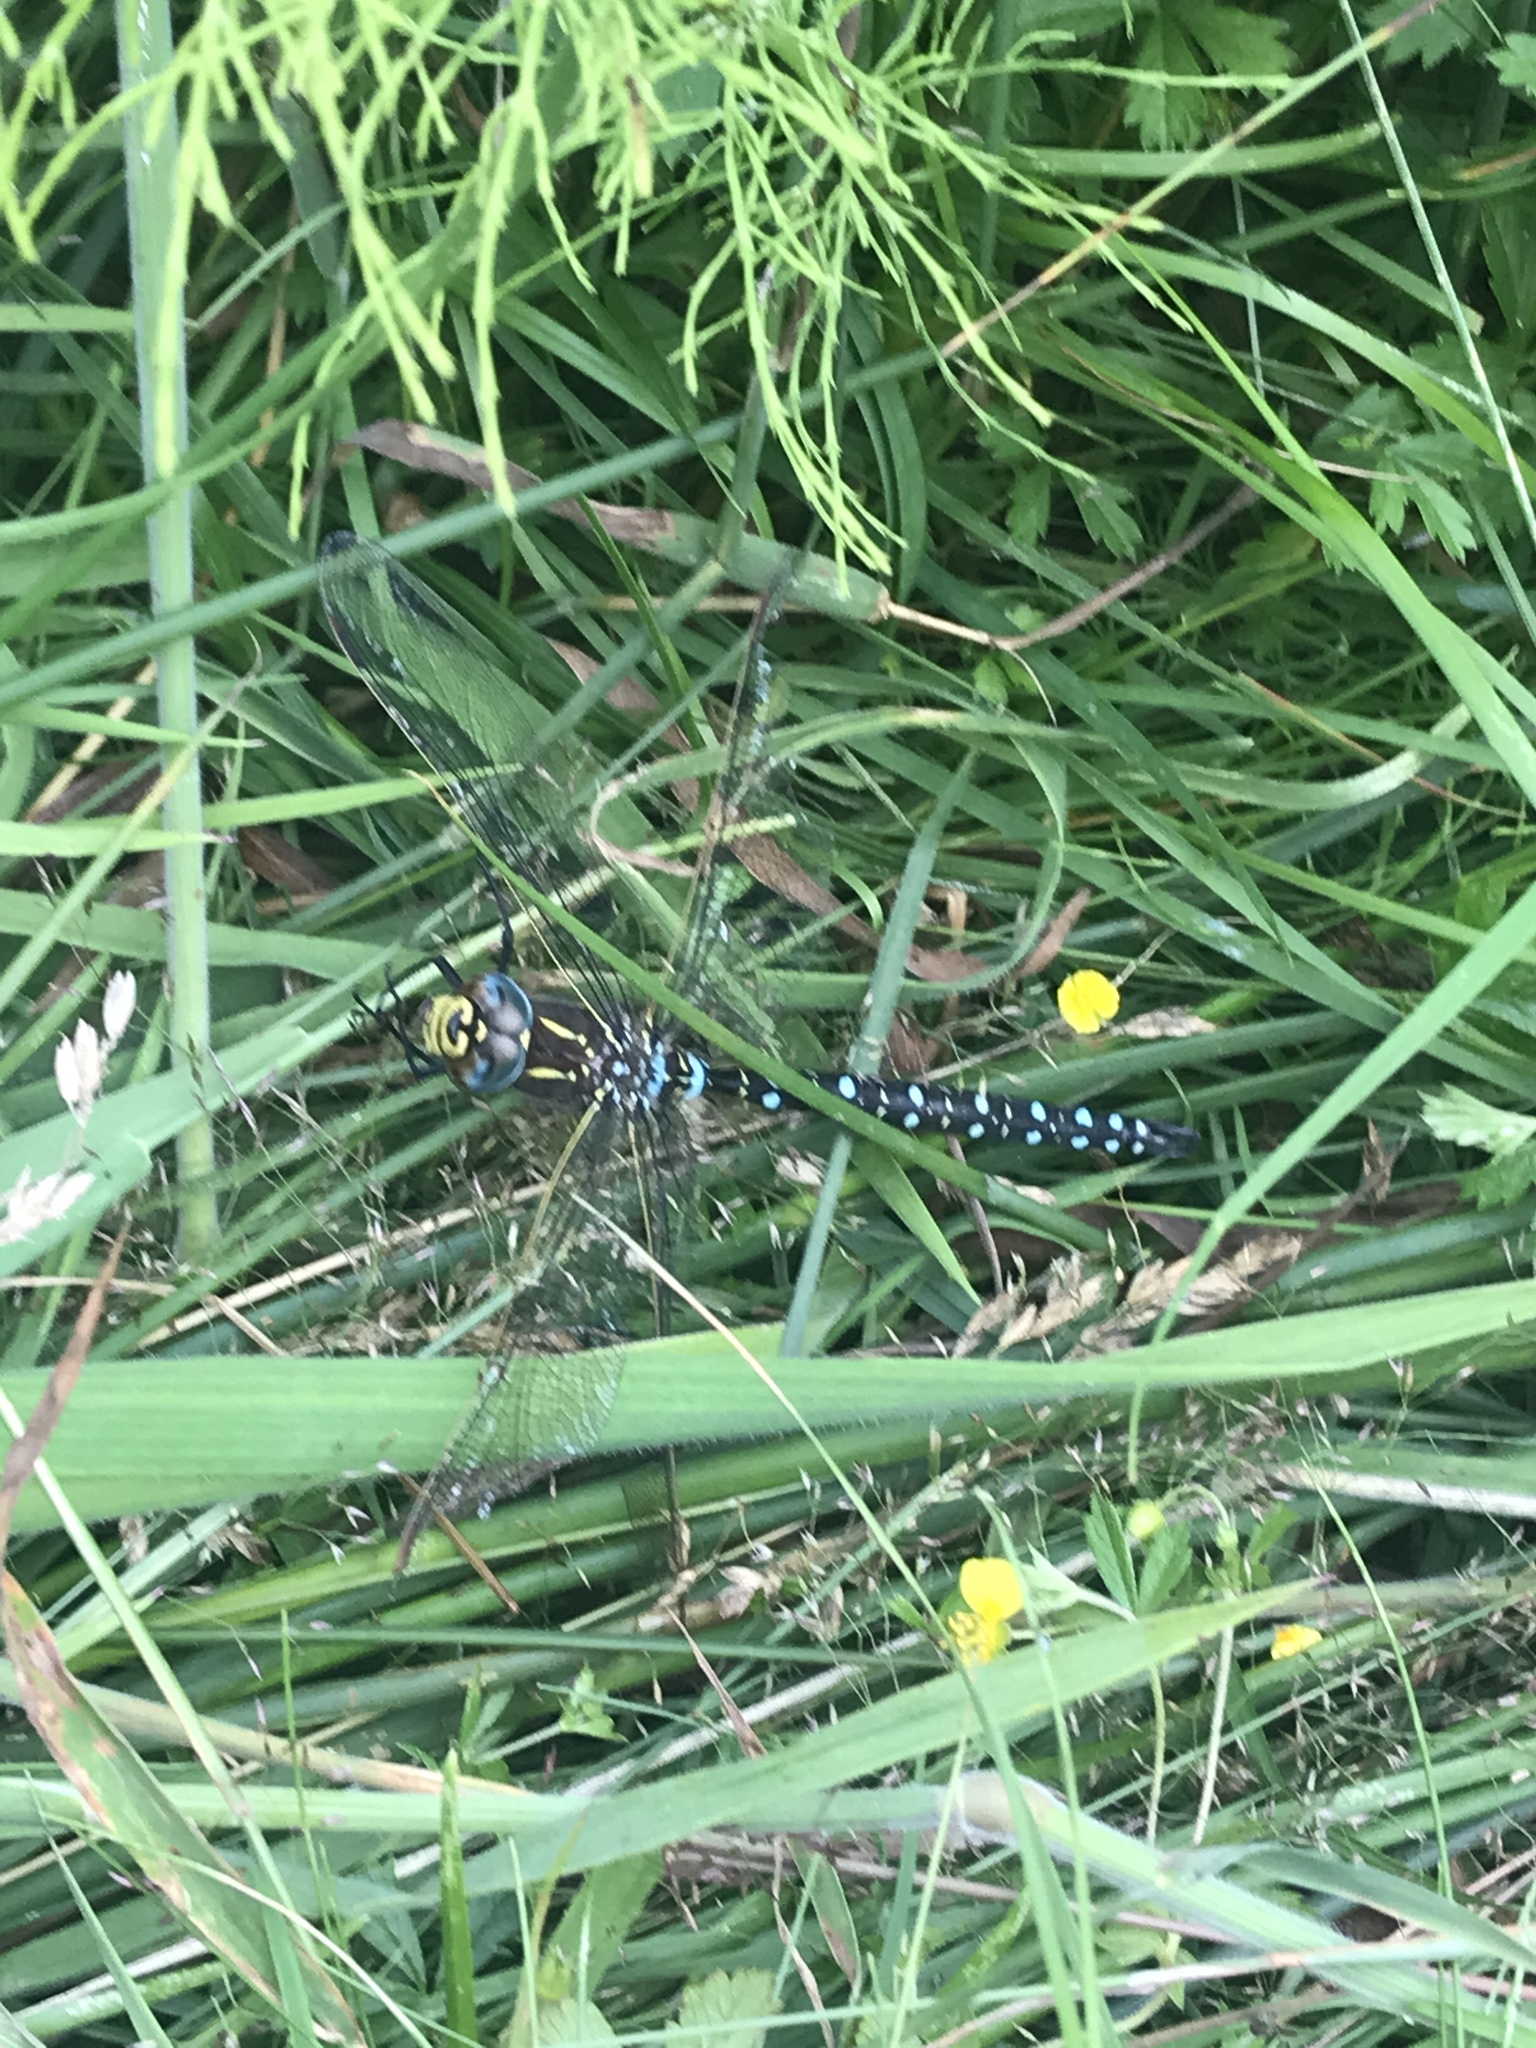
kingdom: Animalia
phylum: Arthropoda
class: Insecta
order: Odonata
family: Aeshnidae
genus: Aeshna
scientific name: Aeshna juncea
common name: Moorland hawker
